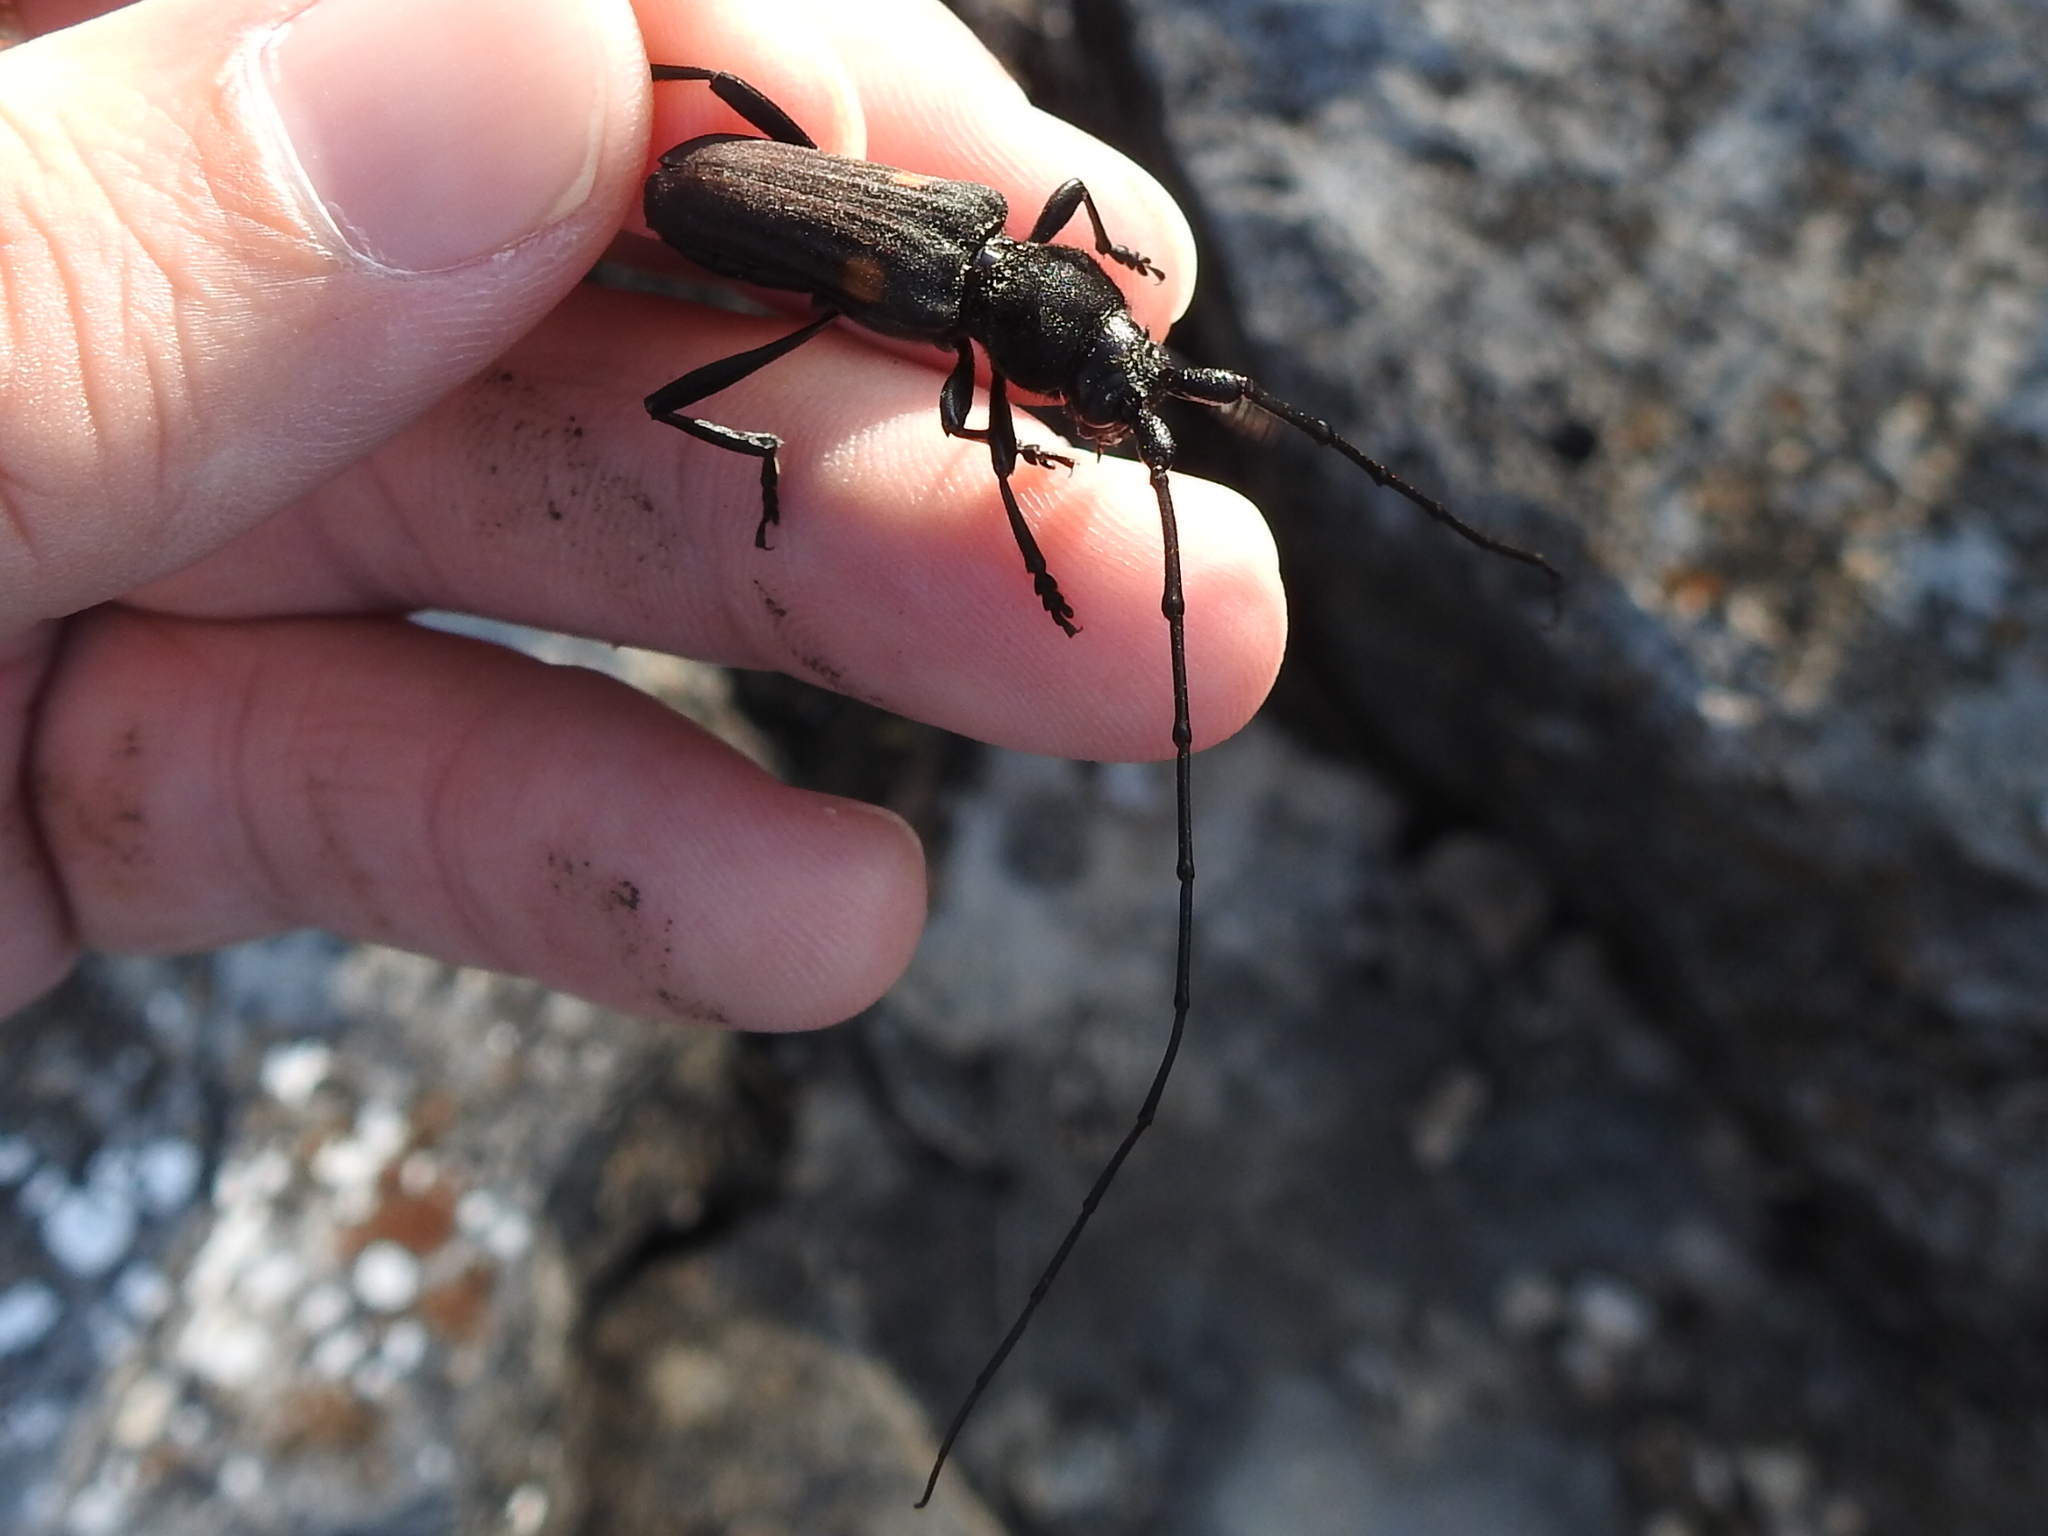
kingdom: Animalia
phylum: Arthropoda
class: Insecta
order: Coleoptera
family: Cerambycidae
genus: Tragidion
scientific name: Tragidion coquus
